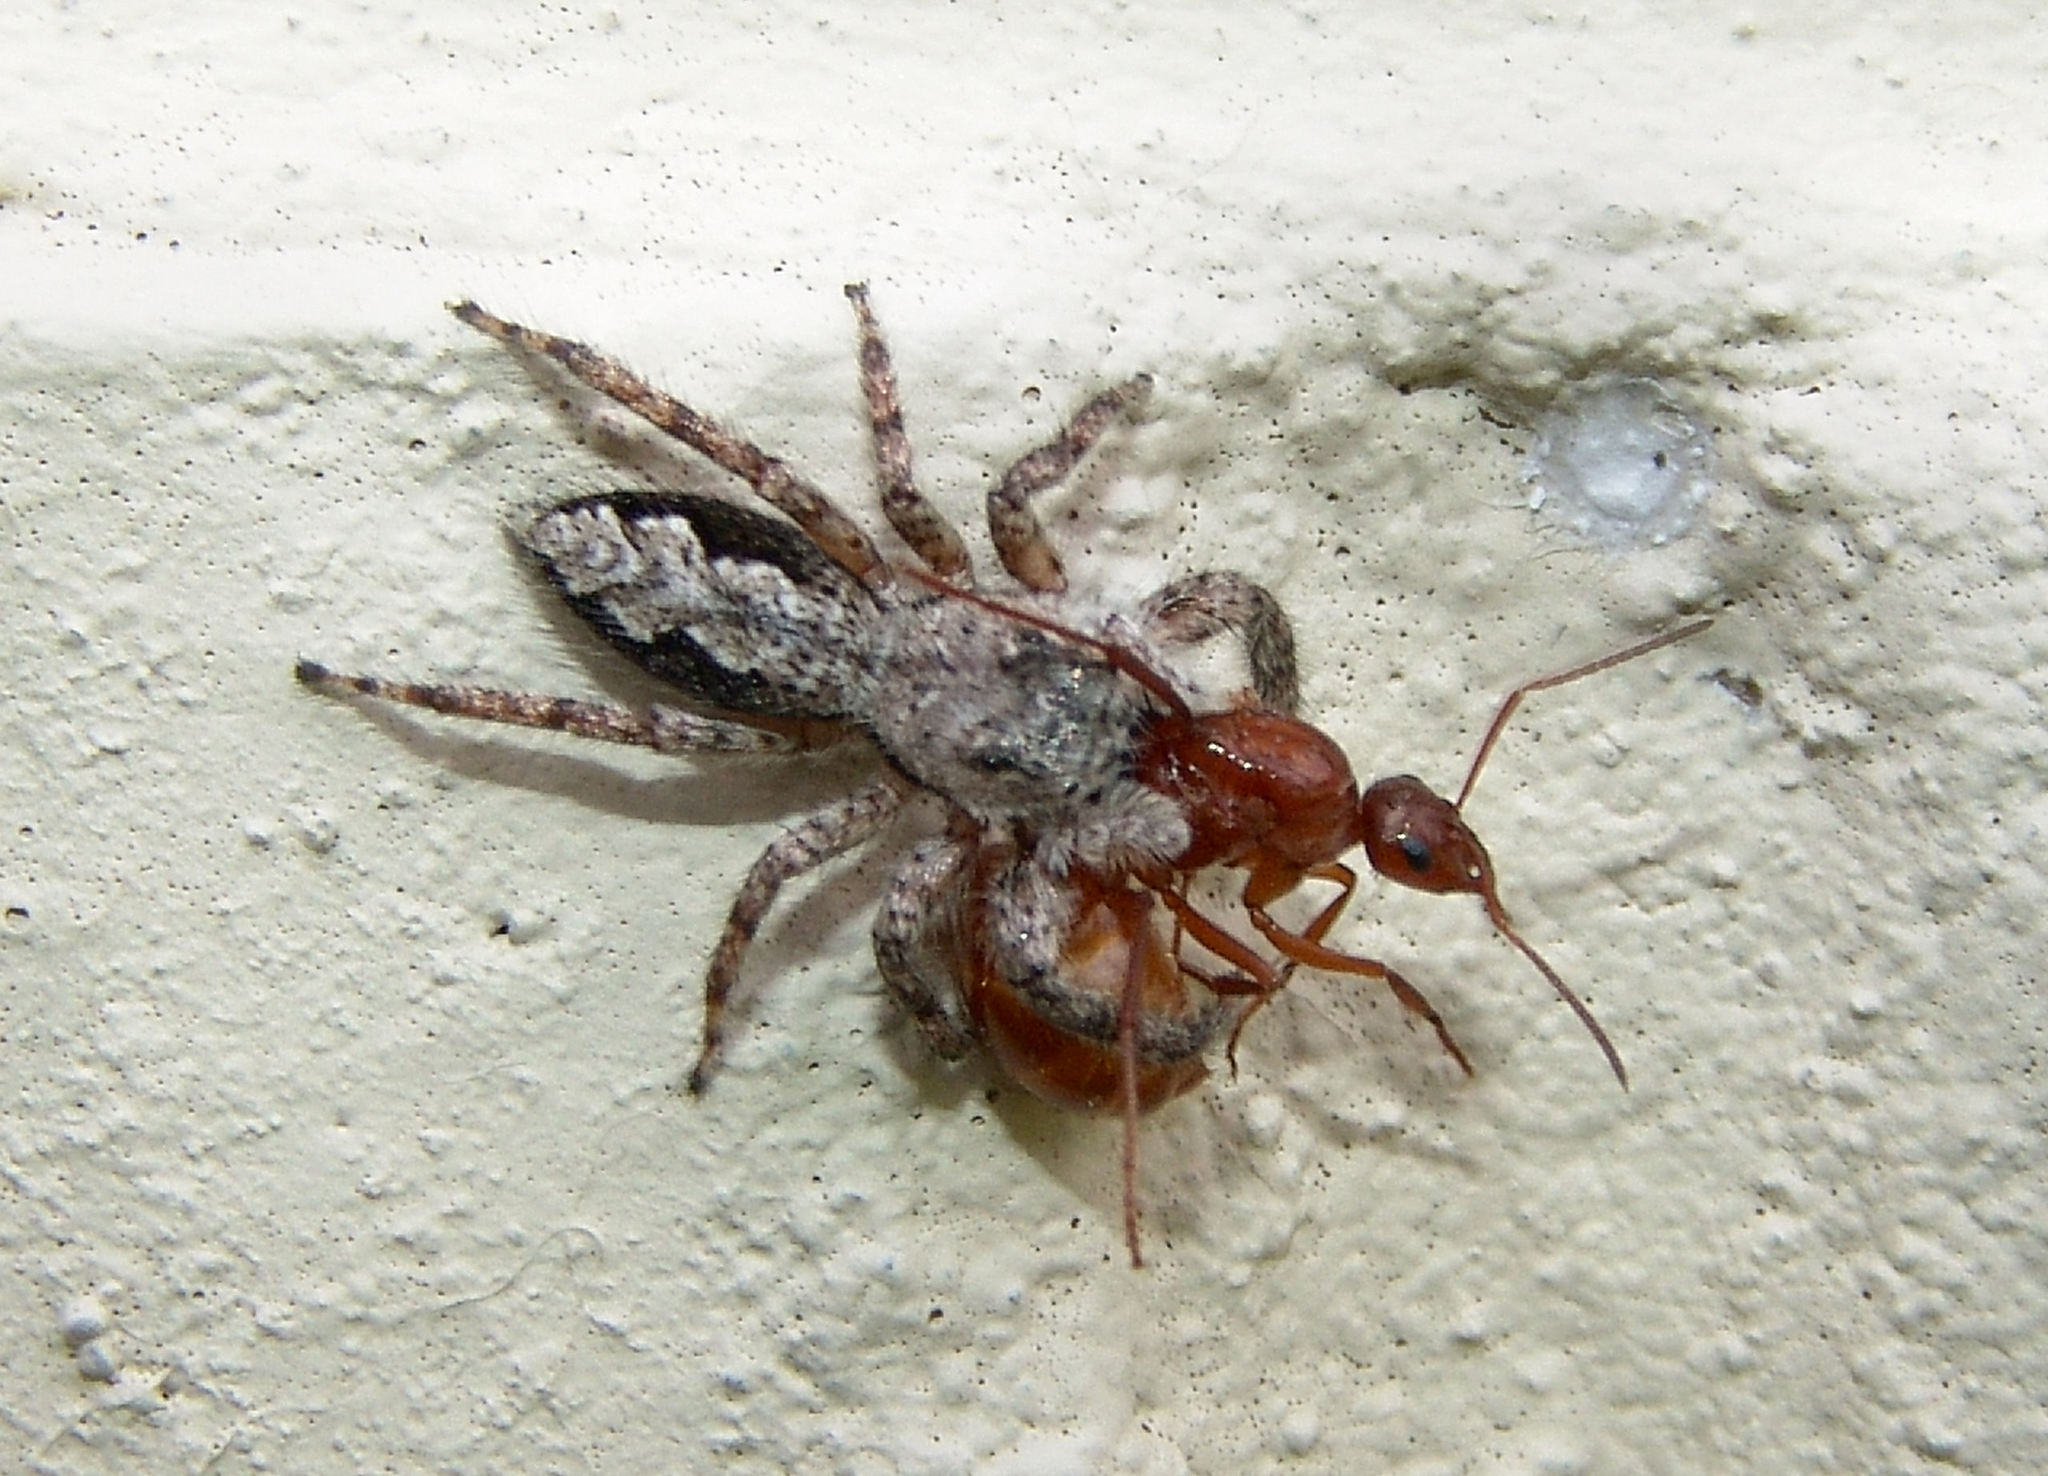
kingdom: Animalia
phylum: Arthropoda
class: Insecta
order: Hymenoptera
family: Formicidae
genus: Formica
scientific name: Formica
